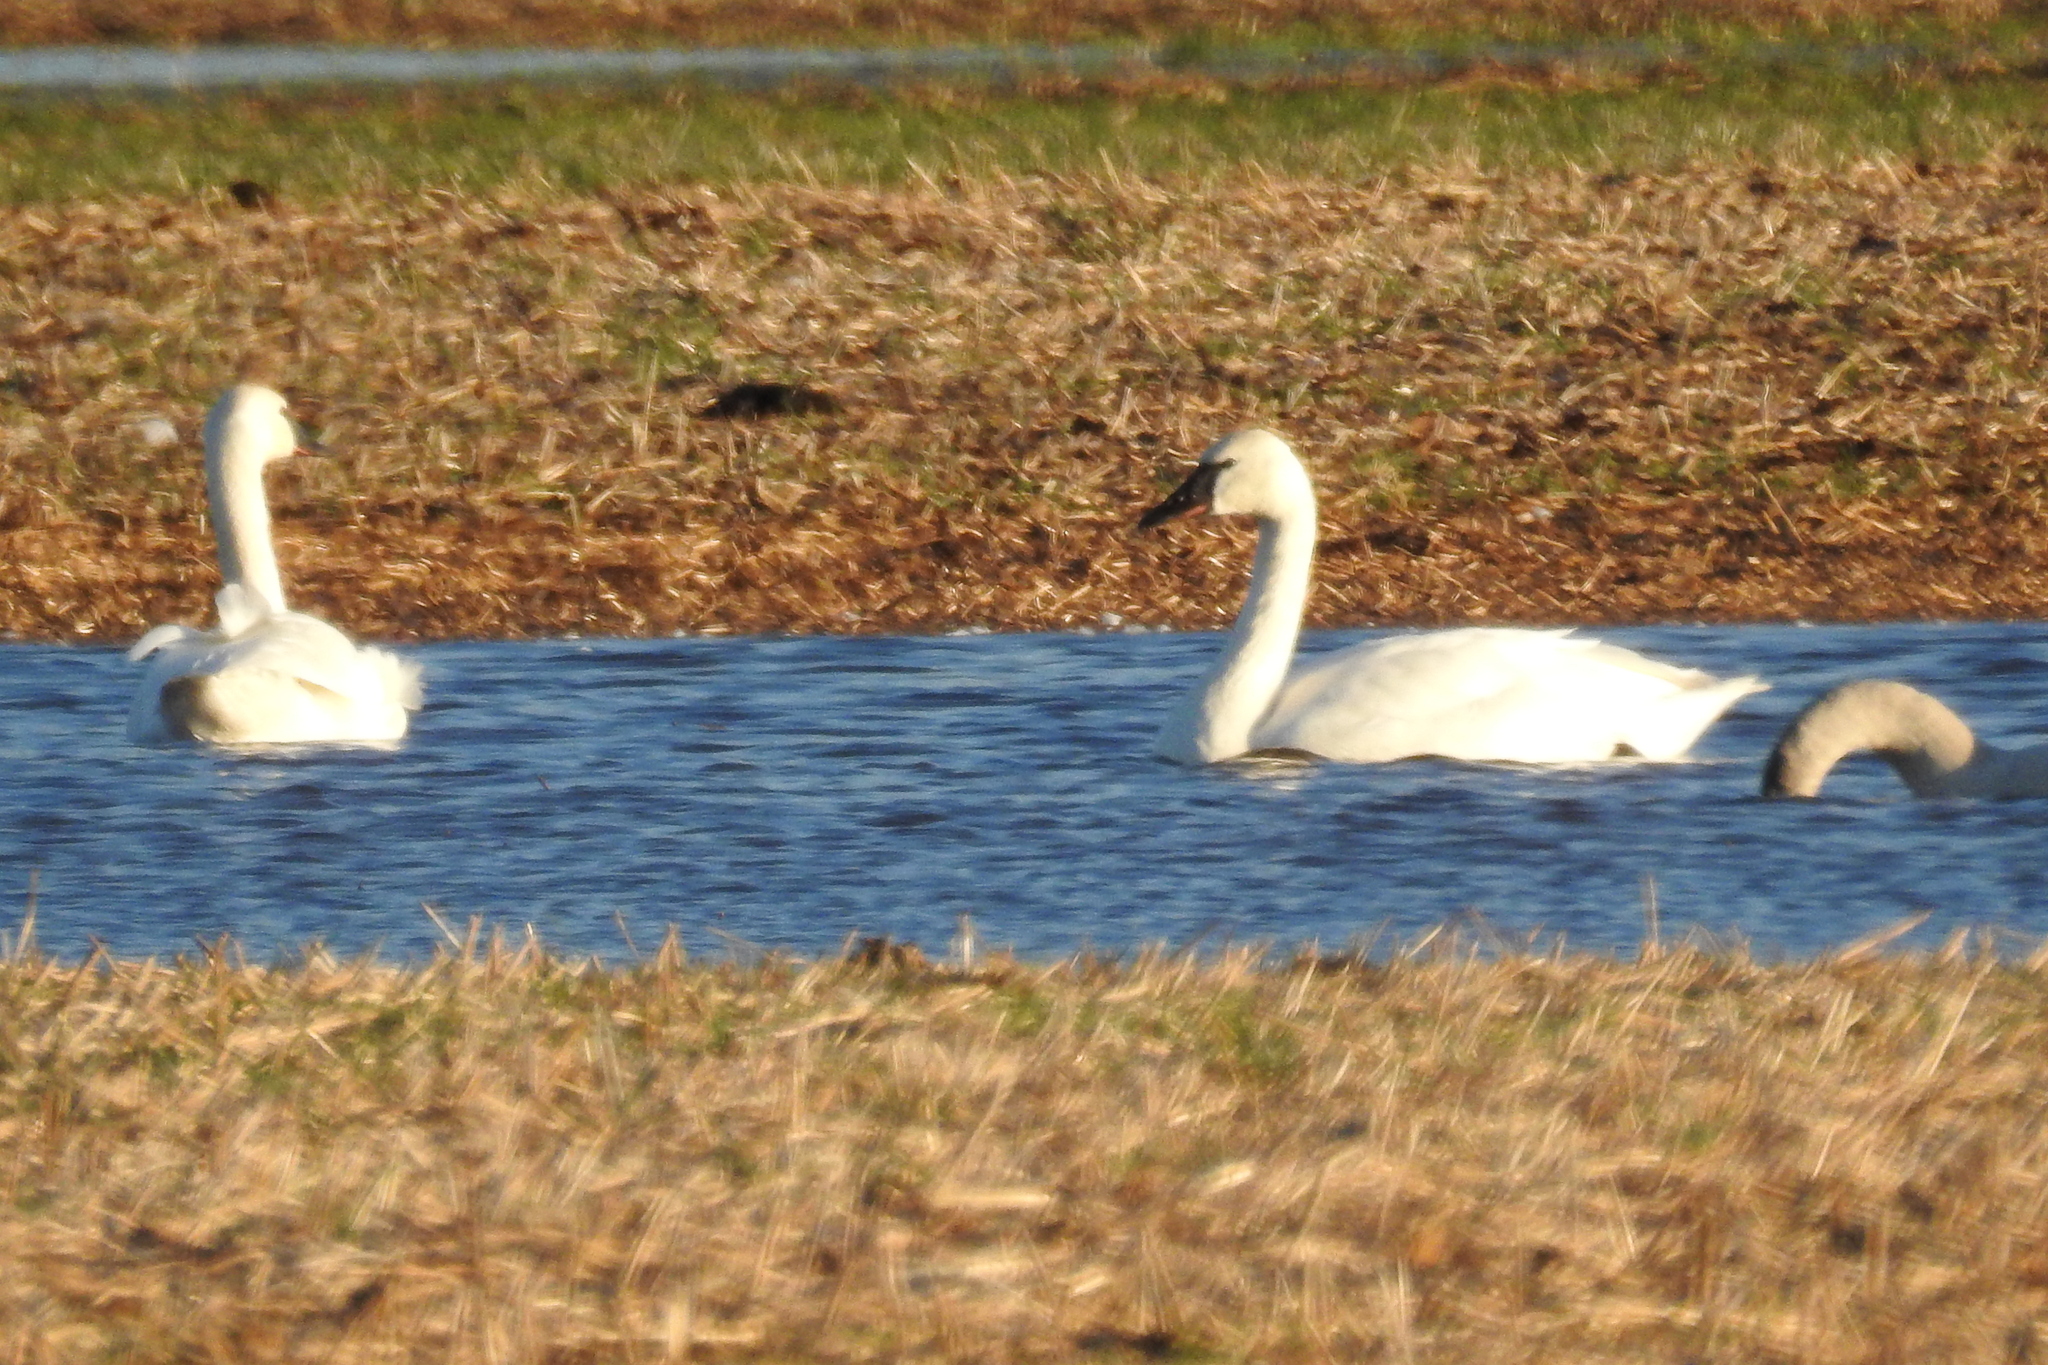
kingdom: Animalia
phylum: Chordata
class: Aves
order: Anseriformes
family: Anatidae
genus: Cygnus
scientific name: Cygnus columbianus
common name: Tundra swan
